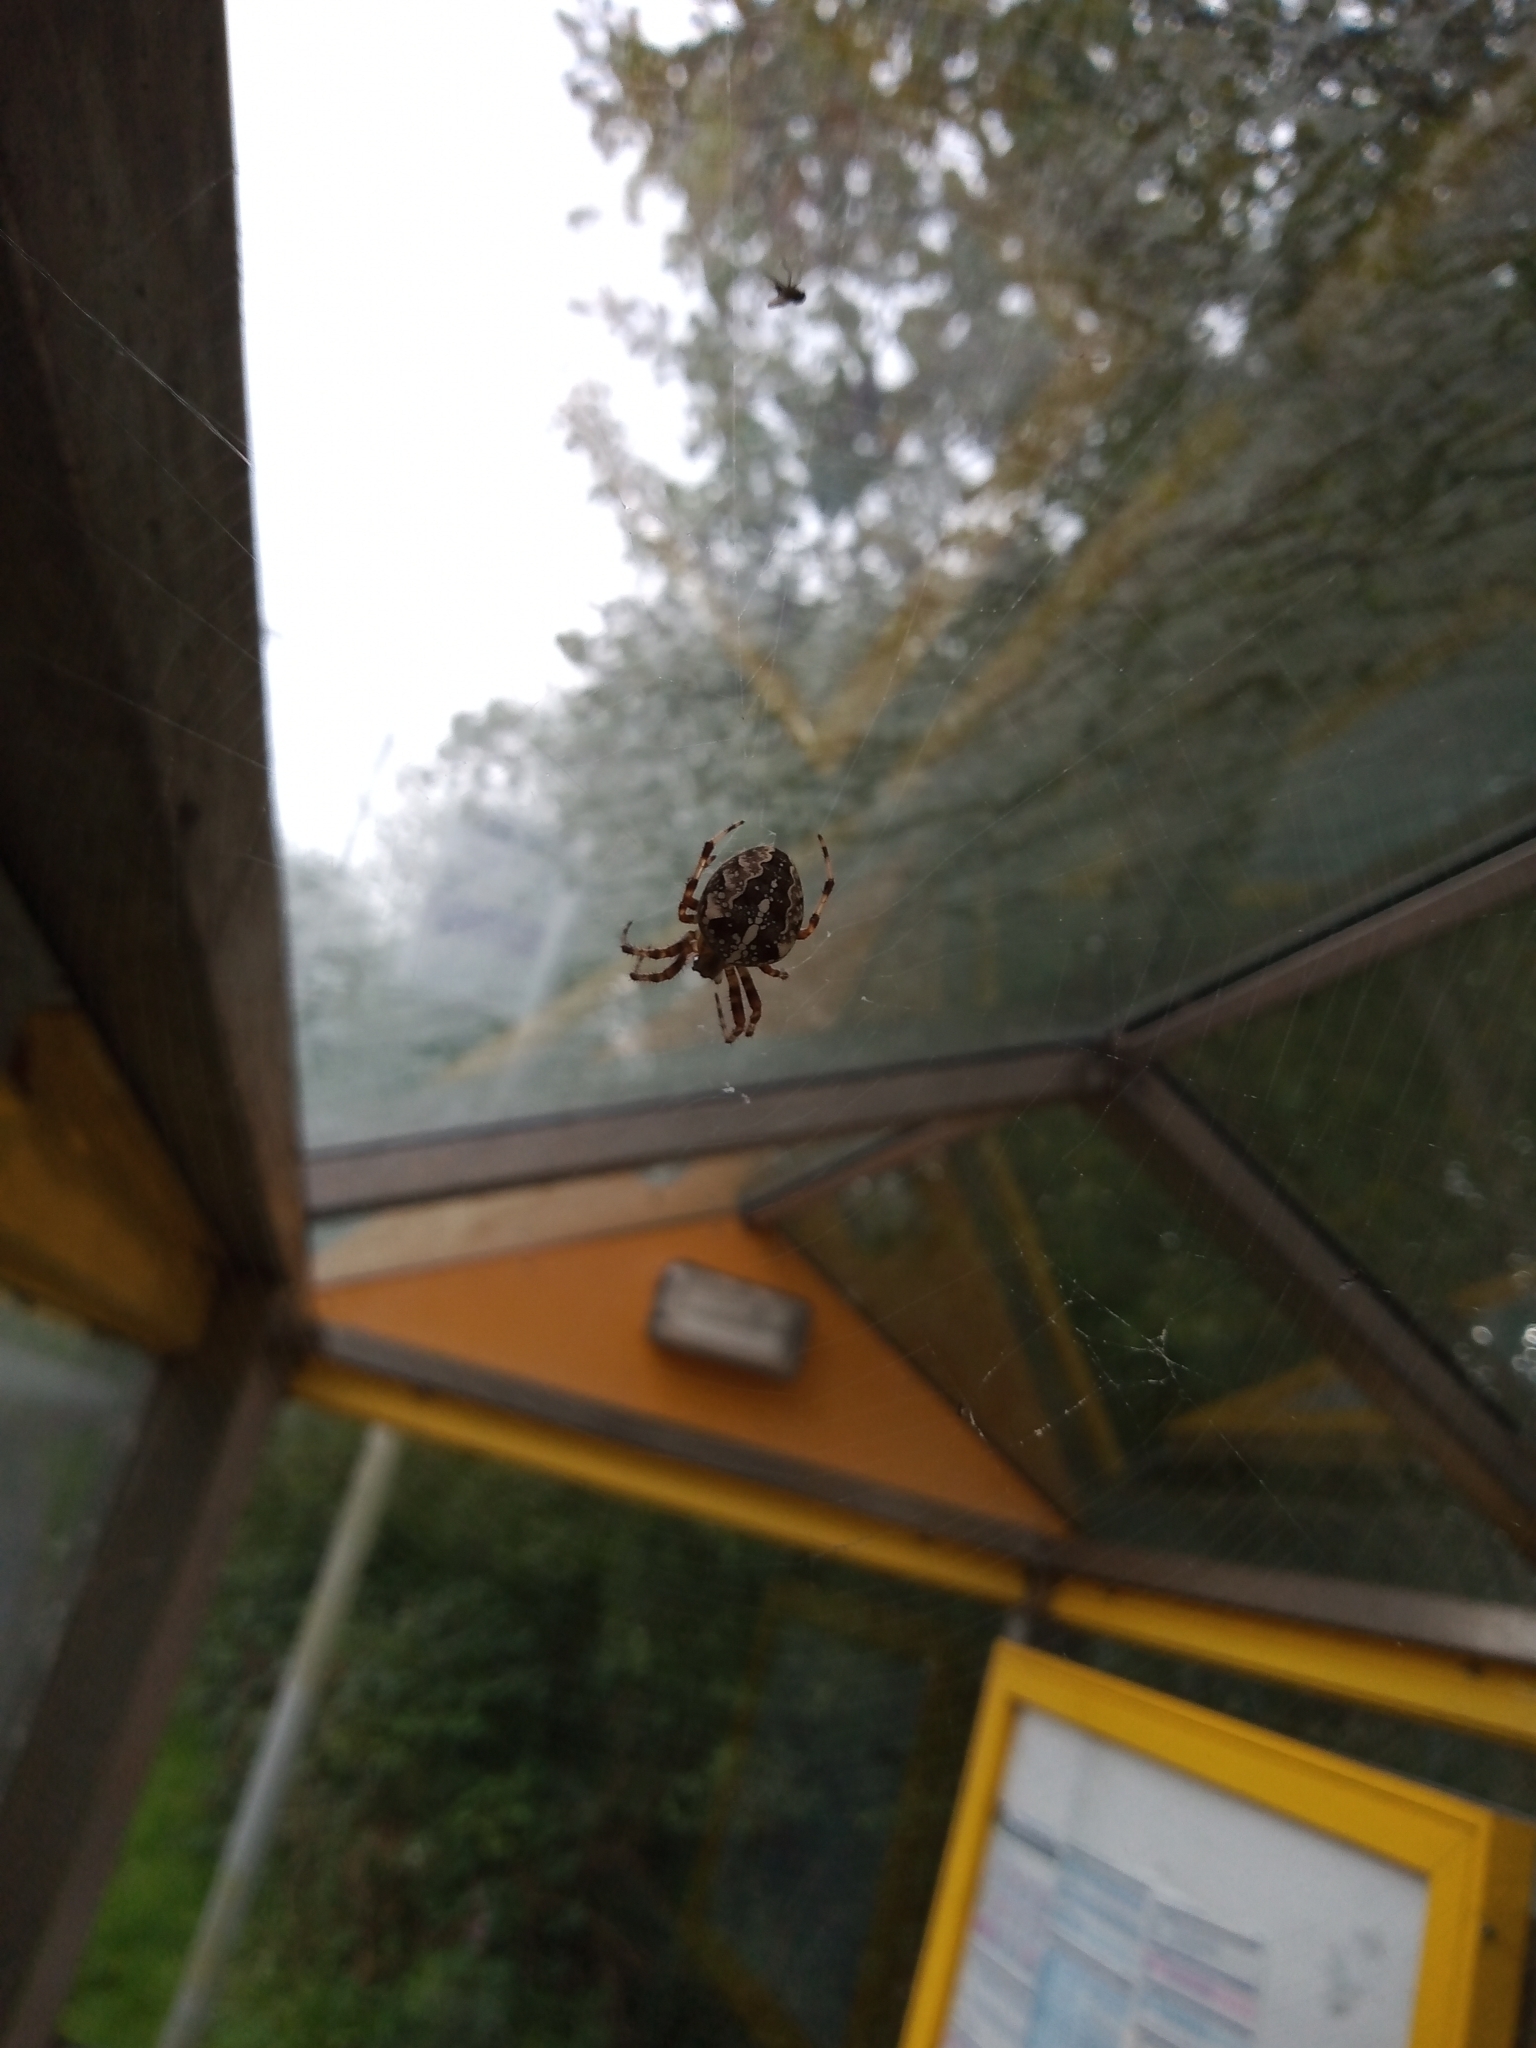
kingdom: Animalia
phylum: Arthropoda
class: Arachnida
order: Araneae
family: Araneidae
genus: Araneus
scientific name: Araneus diadematus
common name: Cross orbweaver
